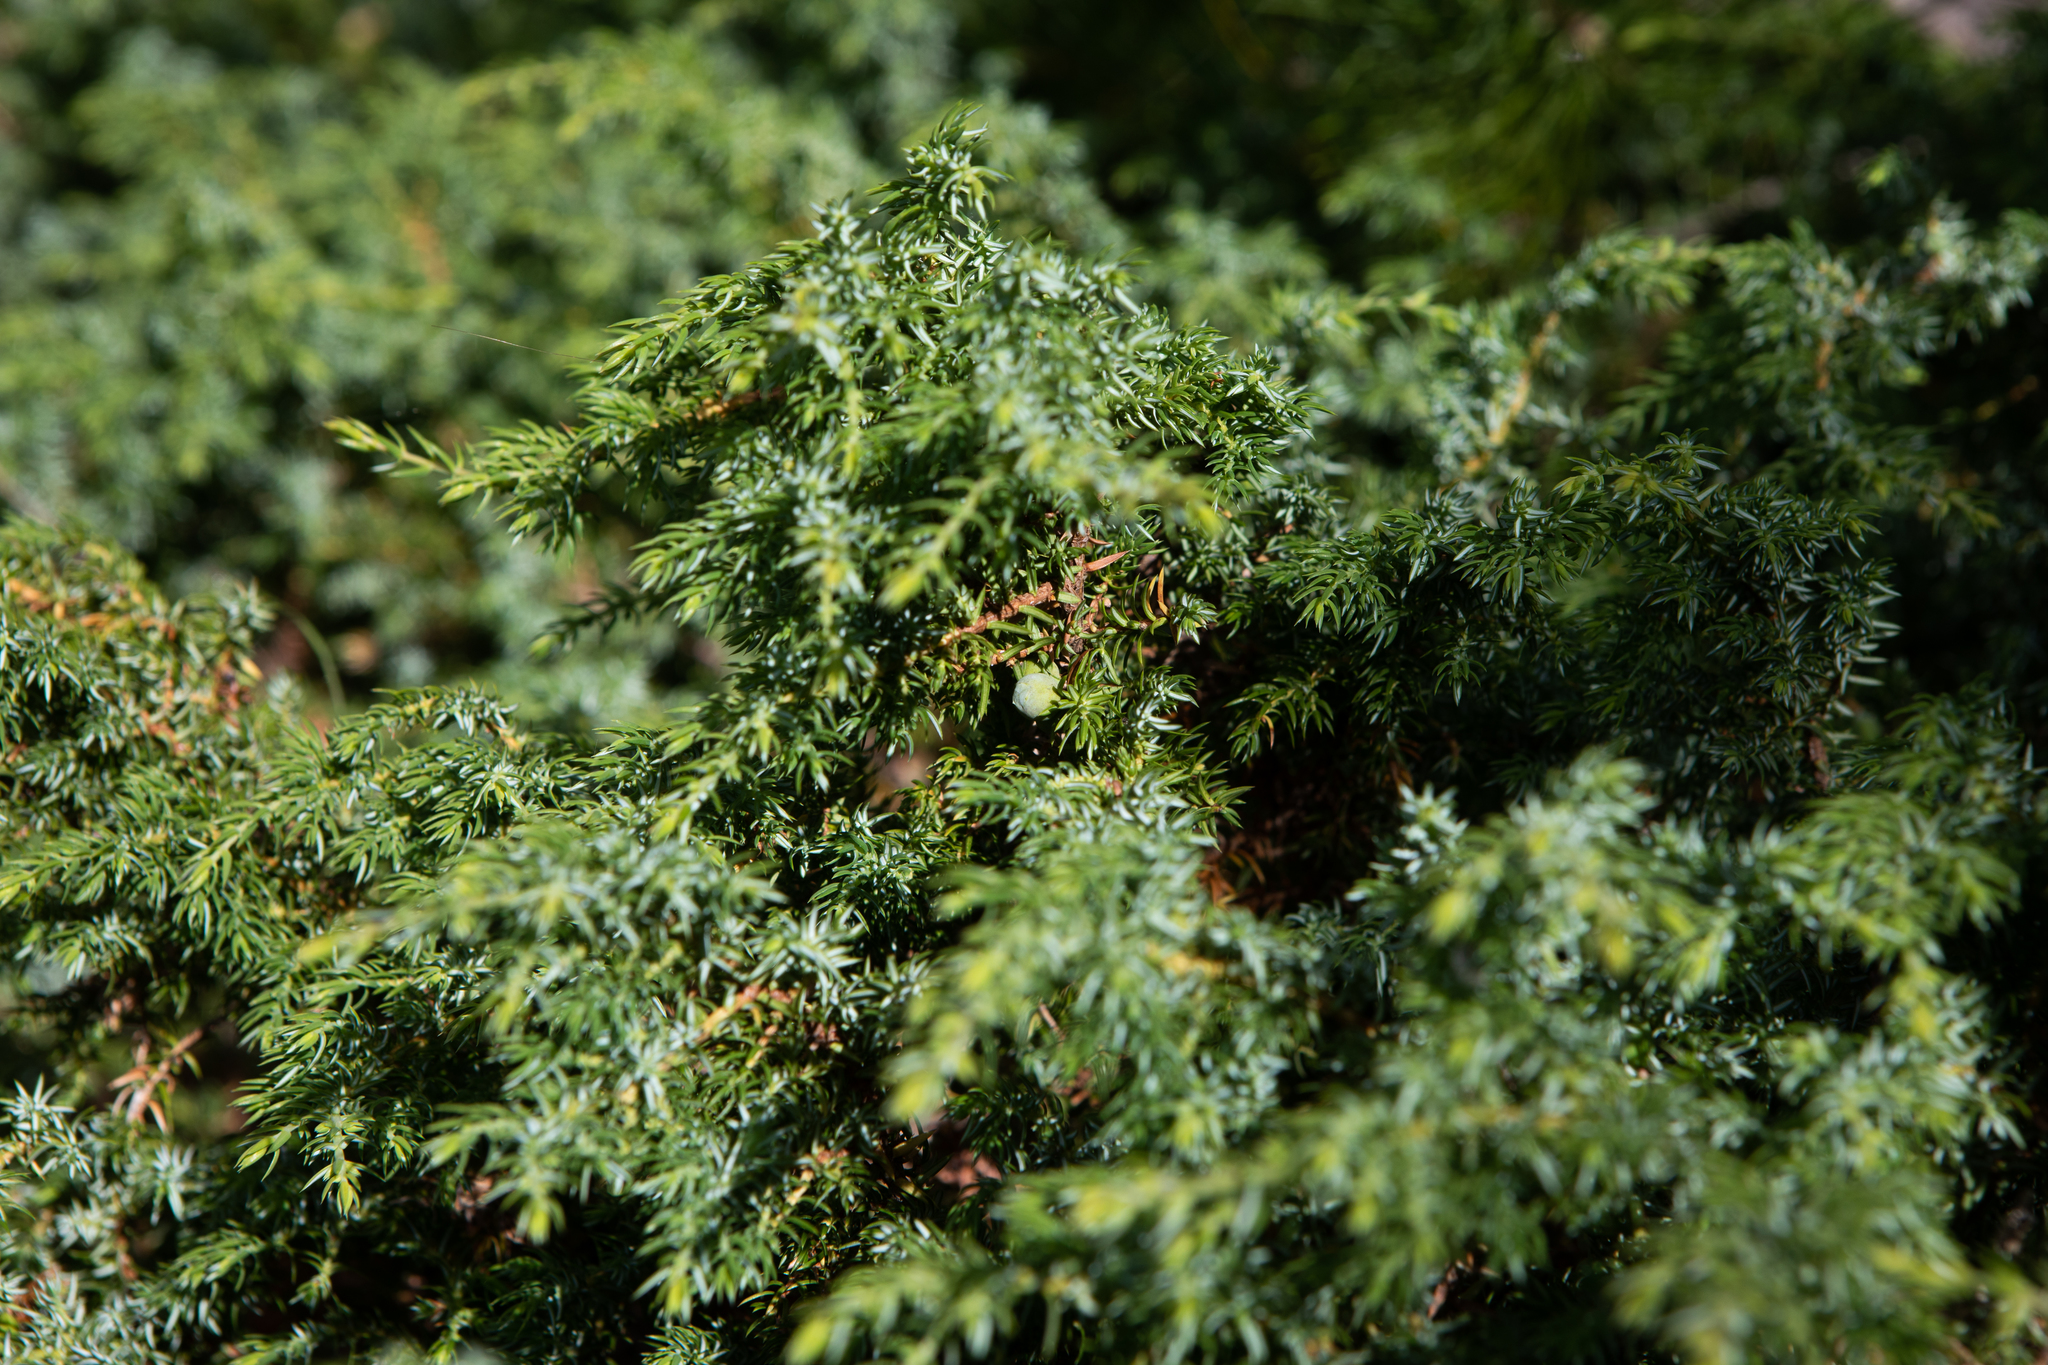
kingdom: Plantae
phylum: Tracheophyta
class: Pinopsida
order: Pinales
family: Cupressaceae
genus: Juniperus
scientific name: Juniperus communis
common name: Common juniper
